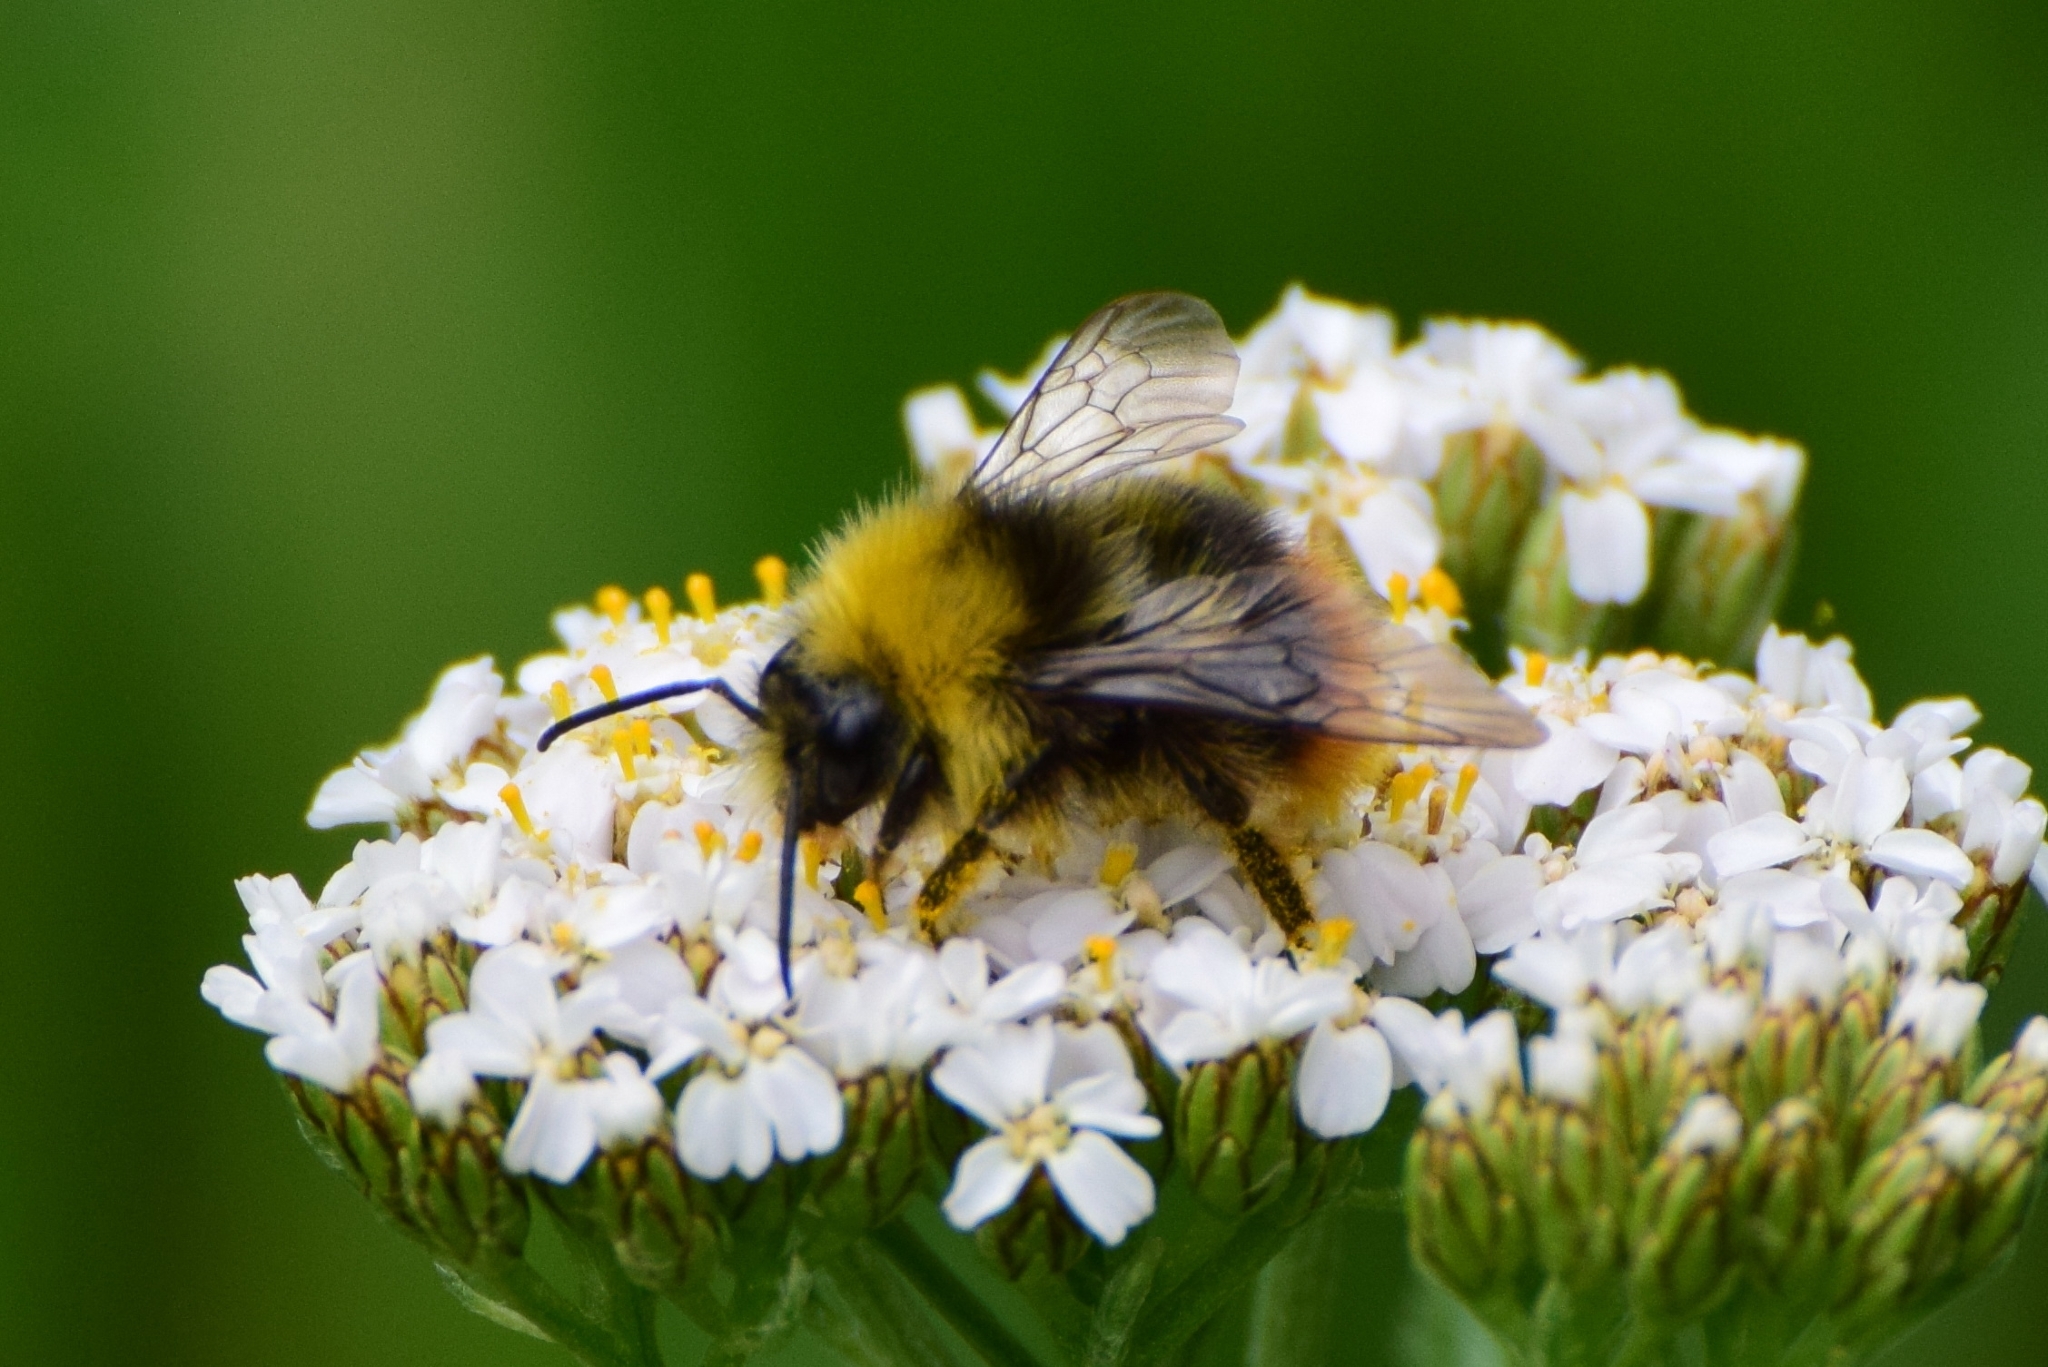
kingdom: Animalia
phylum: Arthropoda
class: Insecta
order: Hymenoptera
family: Apidae
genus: Bombus
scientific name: Bombus pratorum
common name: Early humble-bee
